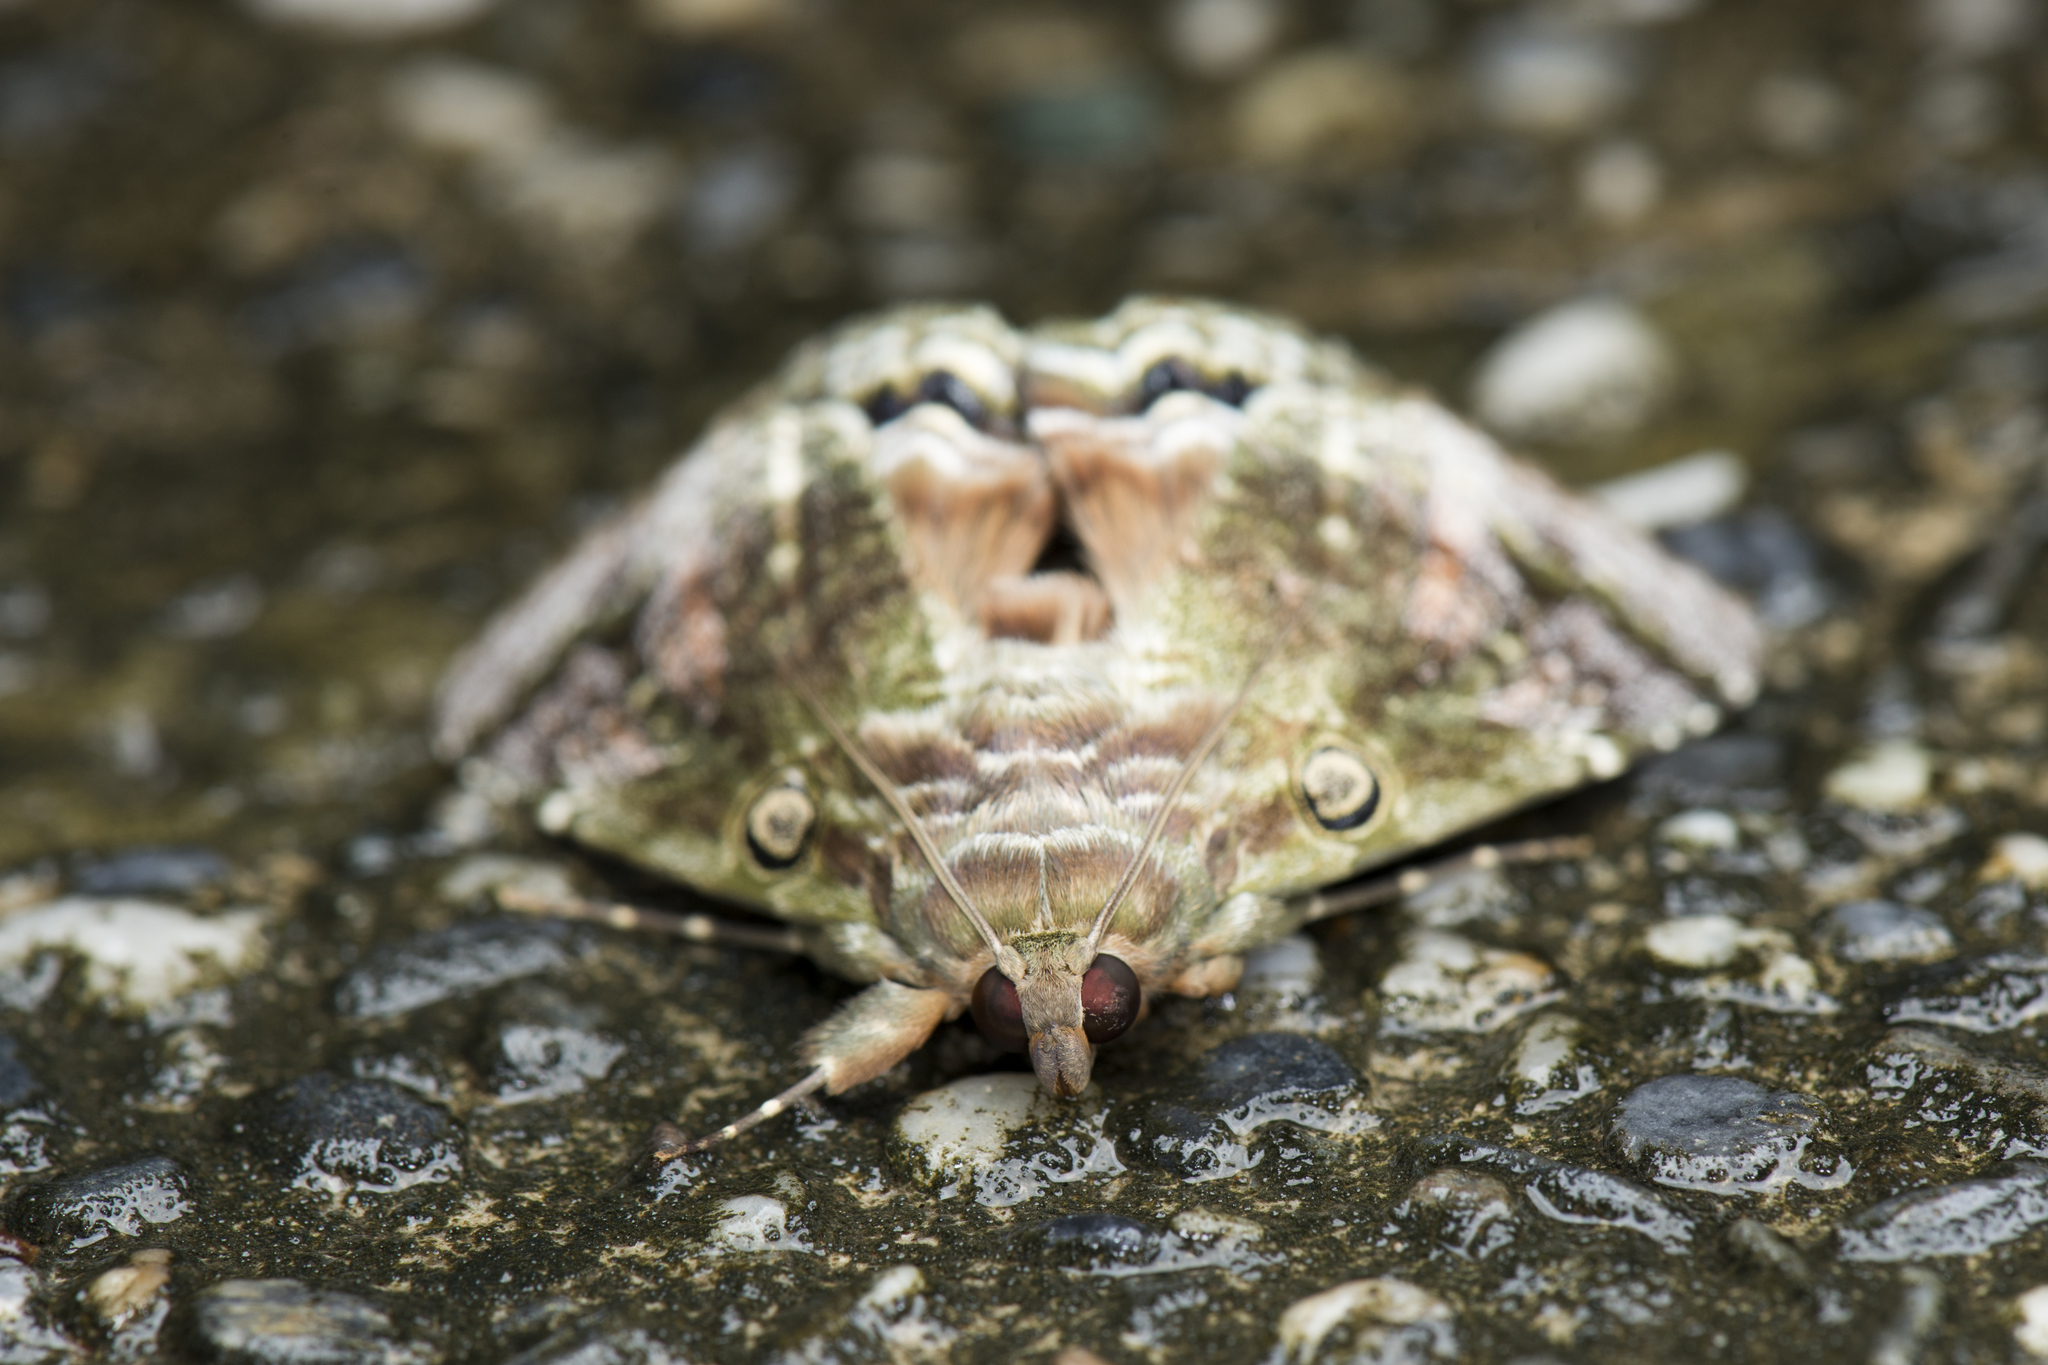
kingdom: Animalia
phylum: Arthropoda
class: Insecta
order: Lepidoptera
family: Erebidae
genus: Cyclodes
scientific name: Cyclodes omma
